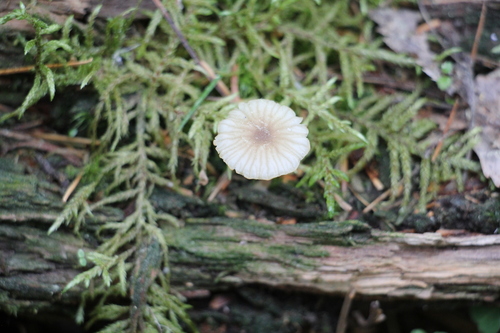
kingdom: Fungi
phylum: Basidiomycota
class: Agaricomycetes
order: Agaricales
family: Hygrophoraceae
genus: Lichenomphalia
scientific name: Lichenomphalia umbellifera
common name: Heath navel
